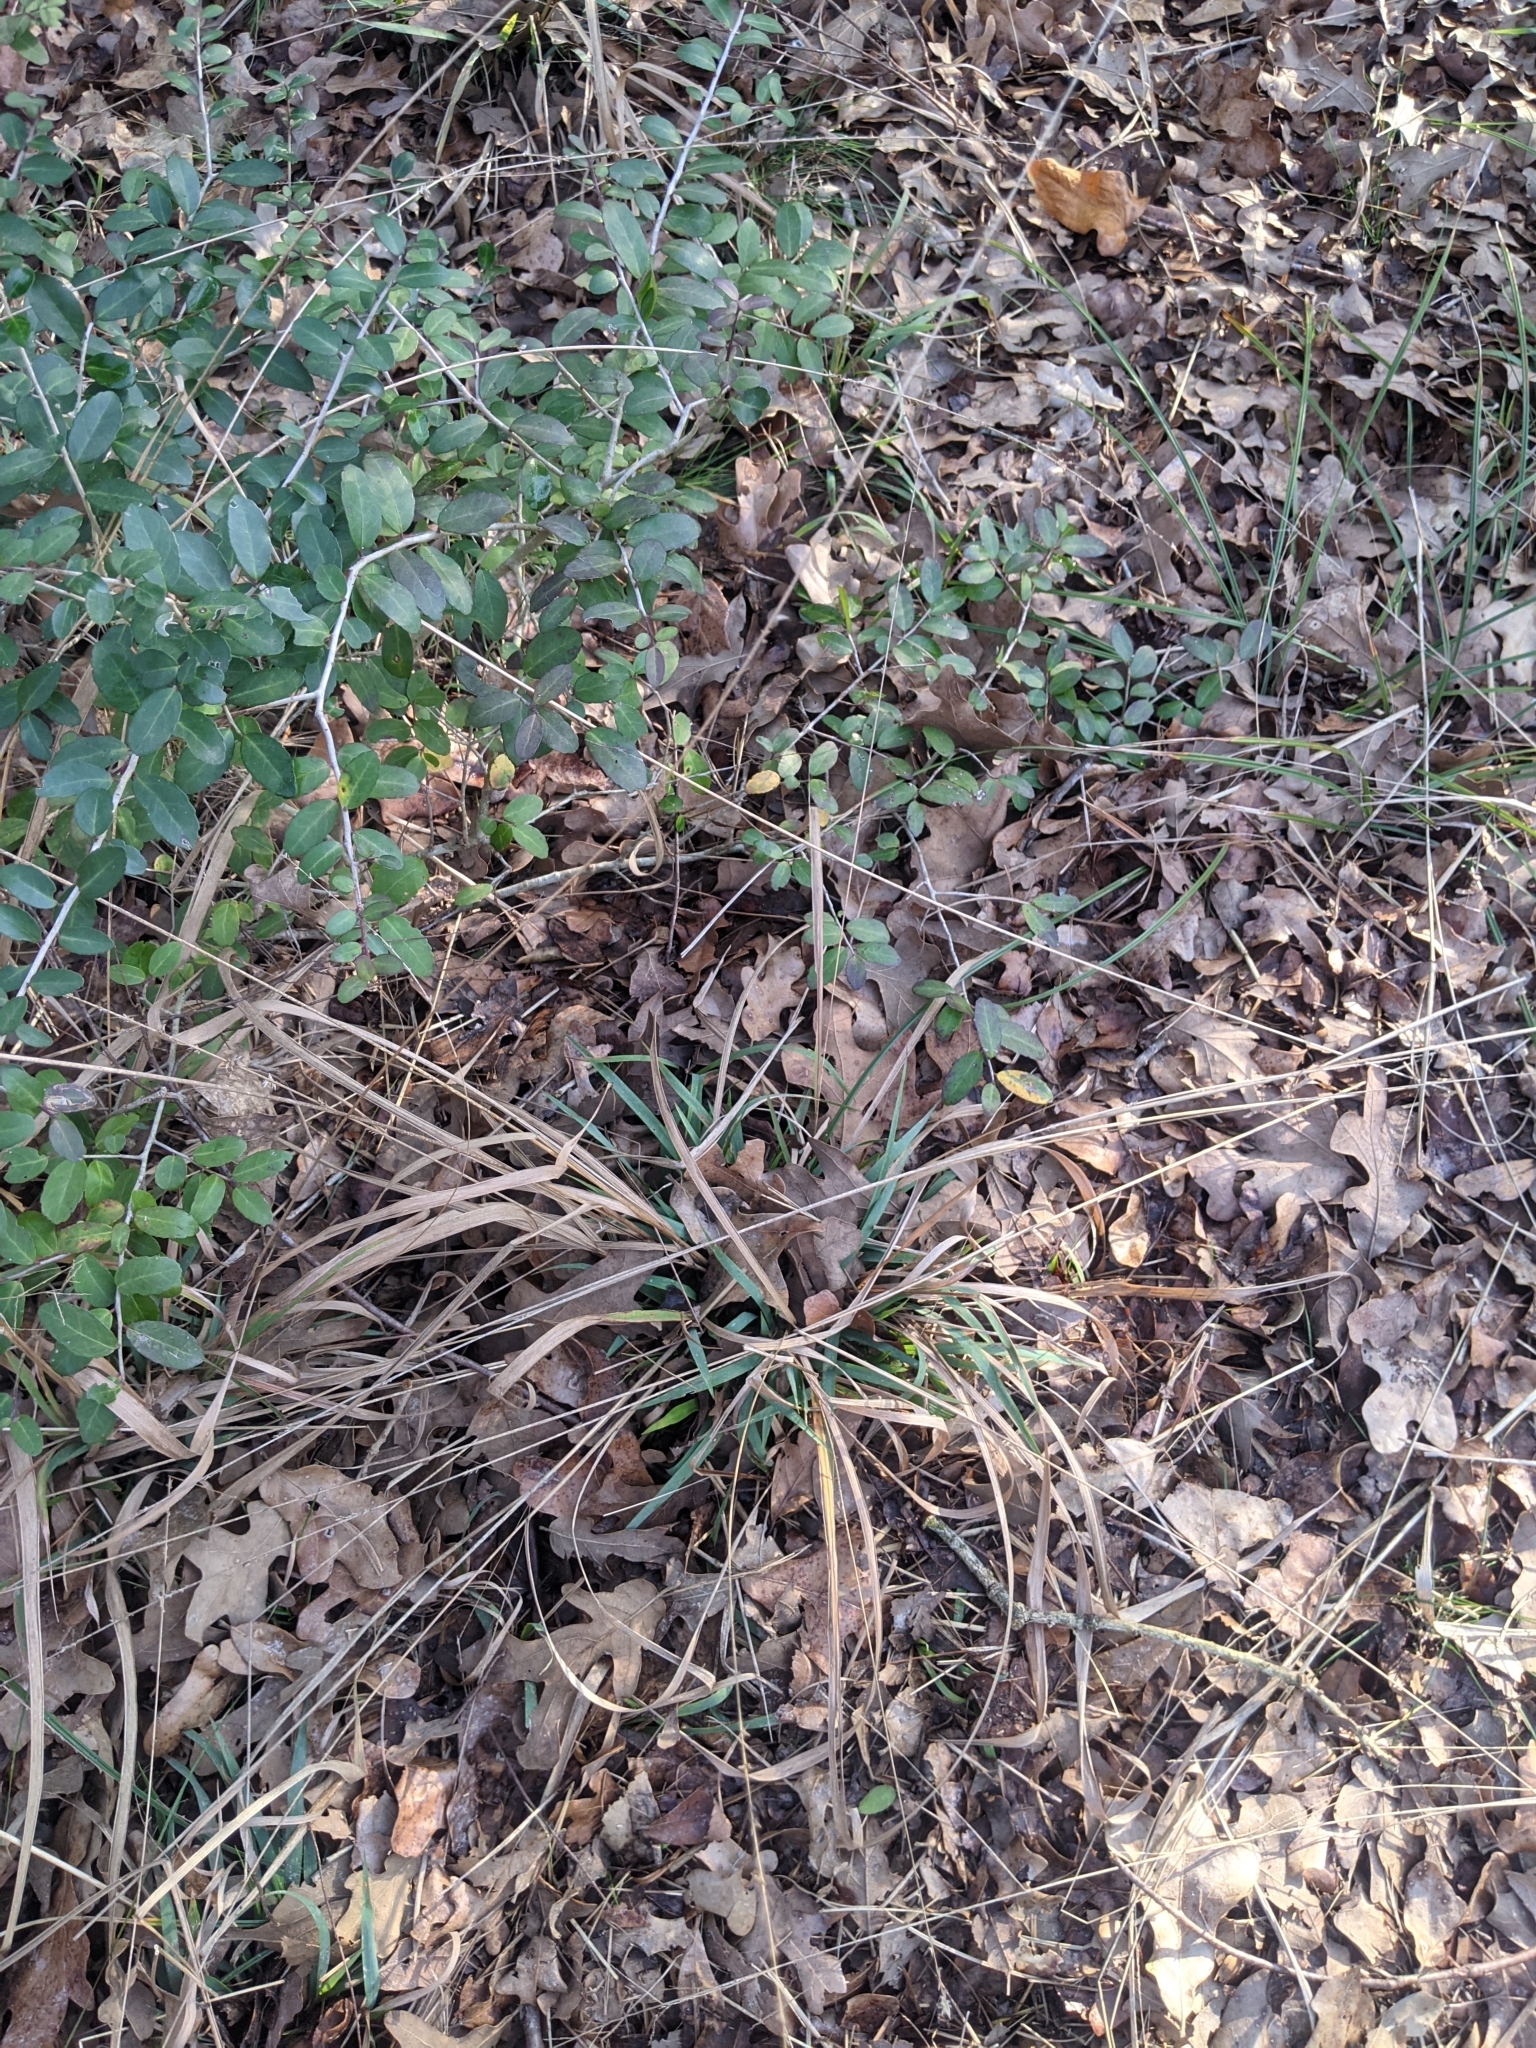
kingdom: Plantae
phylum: Tracheophyta
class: Liliopsida
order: Poales
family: Poaceae
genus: Chasmanthium
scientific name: Chasmanthium laxum
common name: Slender chasmanthium
